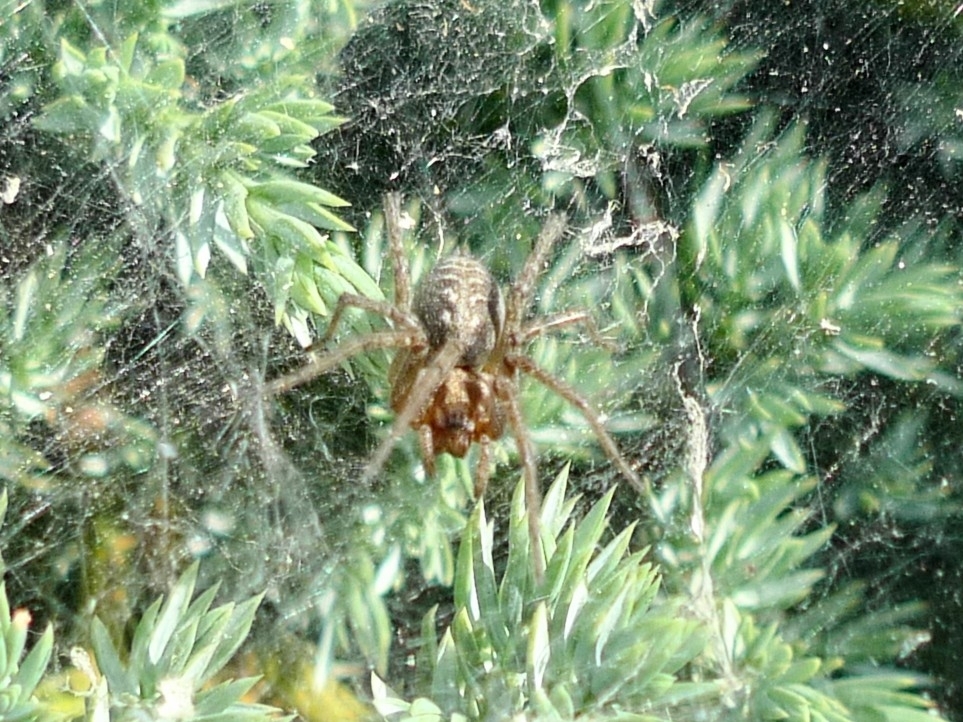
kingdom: Animalia
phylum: Arthropoda
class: Arachnida
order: Araneae
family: Agelenidae
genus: Agelena
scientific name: Agelena labyrinthica
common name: Labyrinth spider
